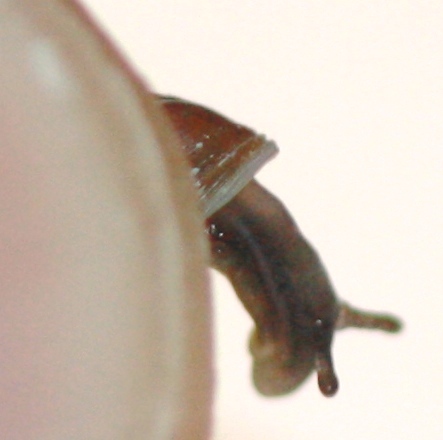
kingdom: Animalia
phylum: Mollusca
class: Gastropoda
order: Ellobiida
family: Ellobiidae
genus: Myosotella
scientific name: Myosotella myosotis
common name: Mouse-eared snail
